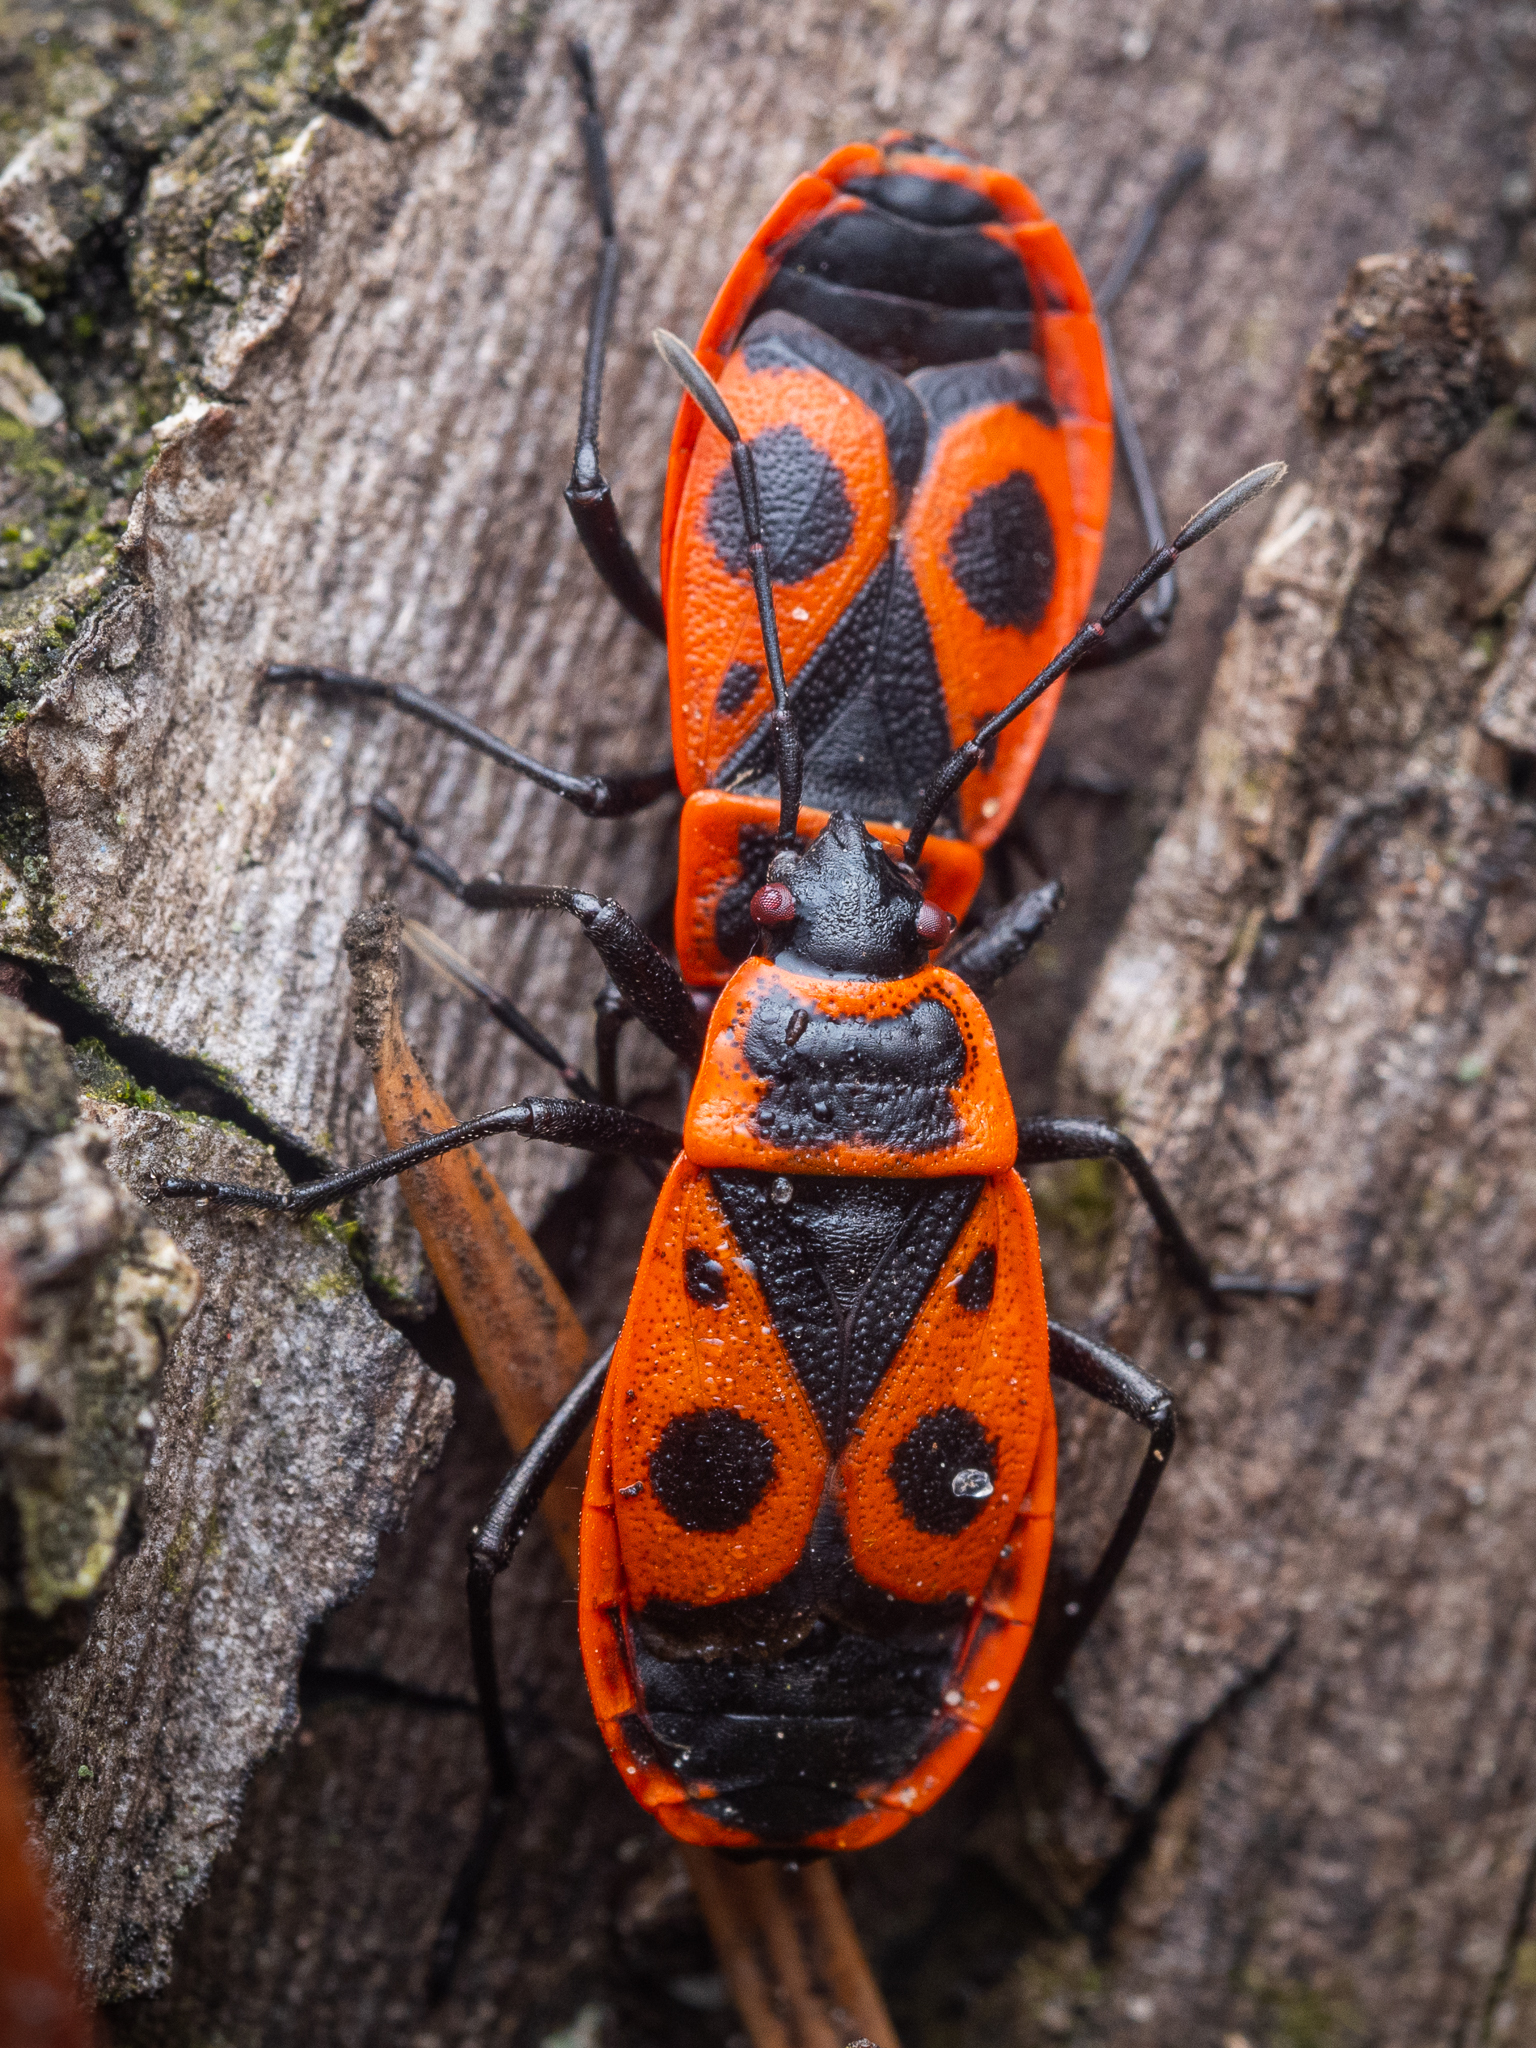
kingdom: Animalia
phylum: Arthropoda
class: Insecta
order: Hemiptera
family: Pyrrhocoridae
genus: Pyrrhocoris
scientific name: Pyrrhocoris apterus
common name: Firebug
